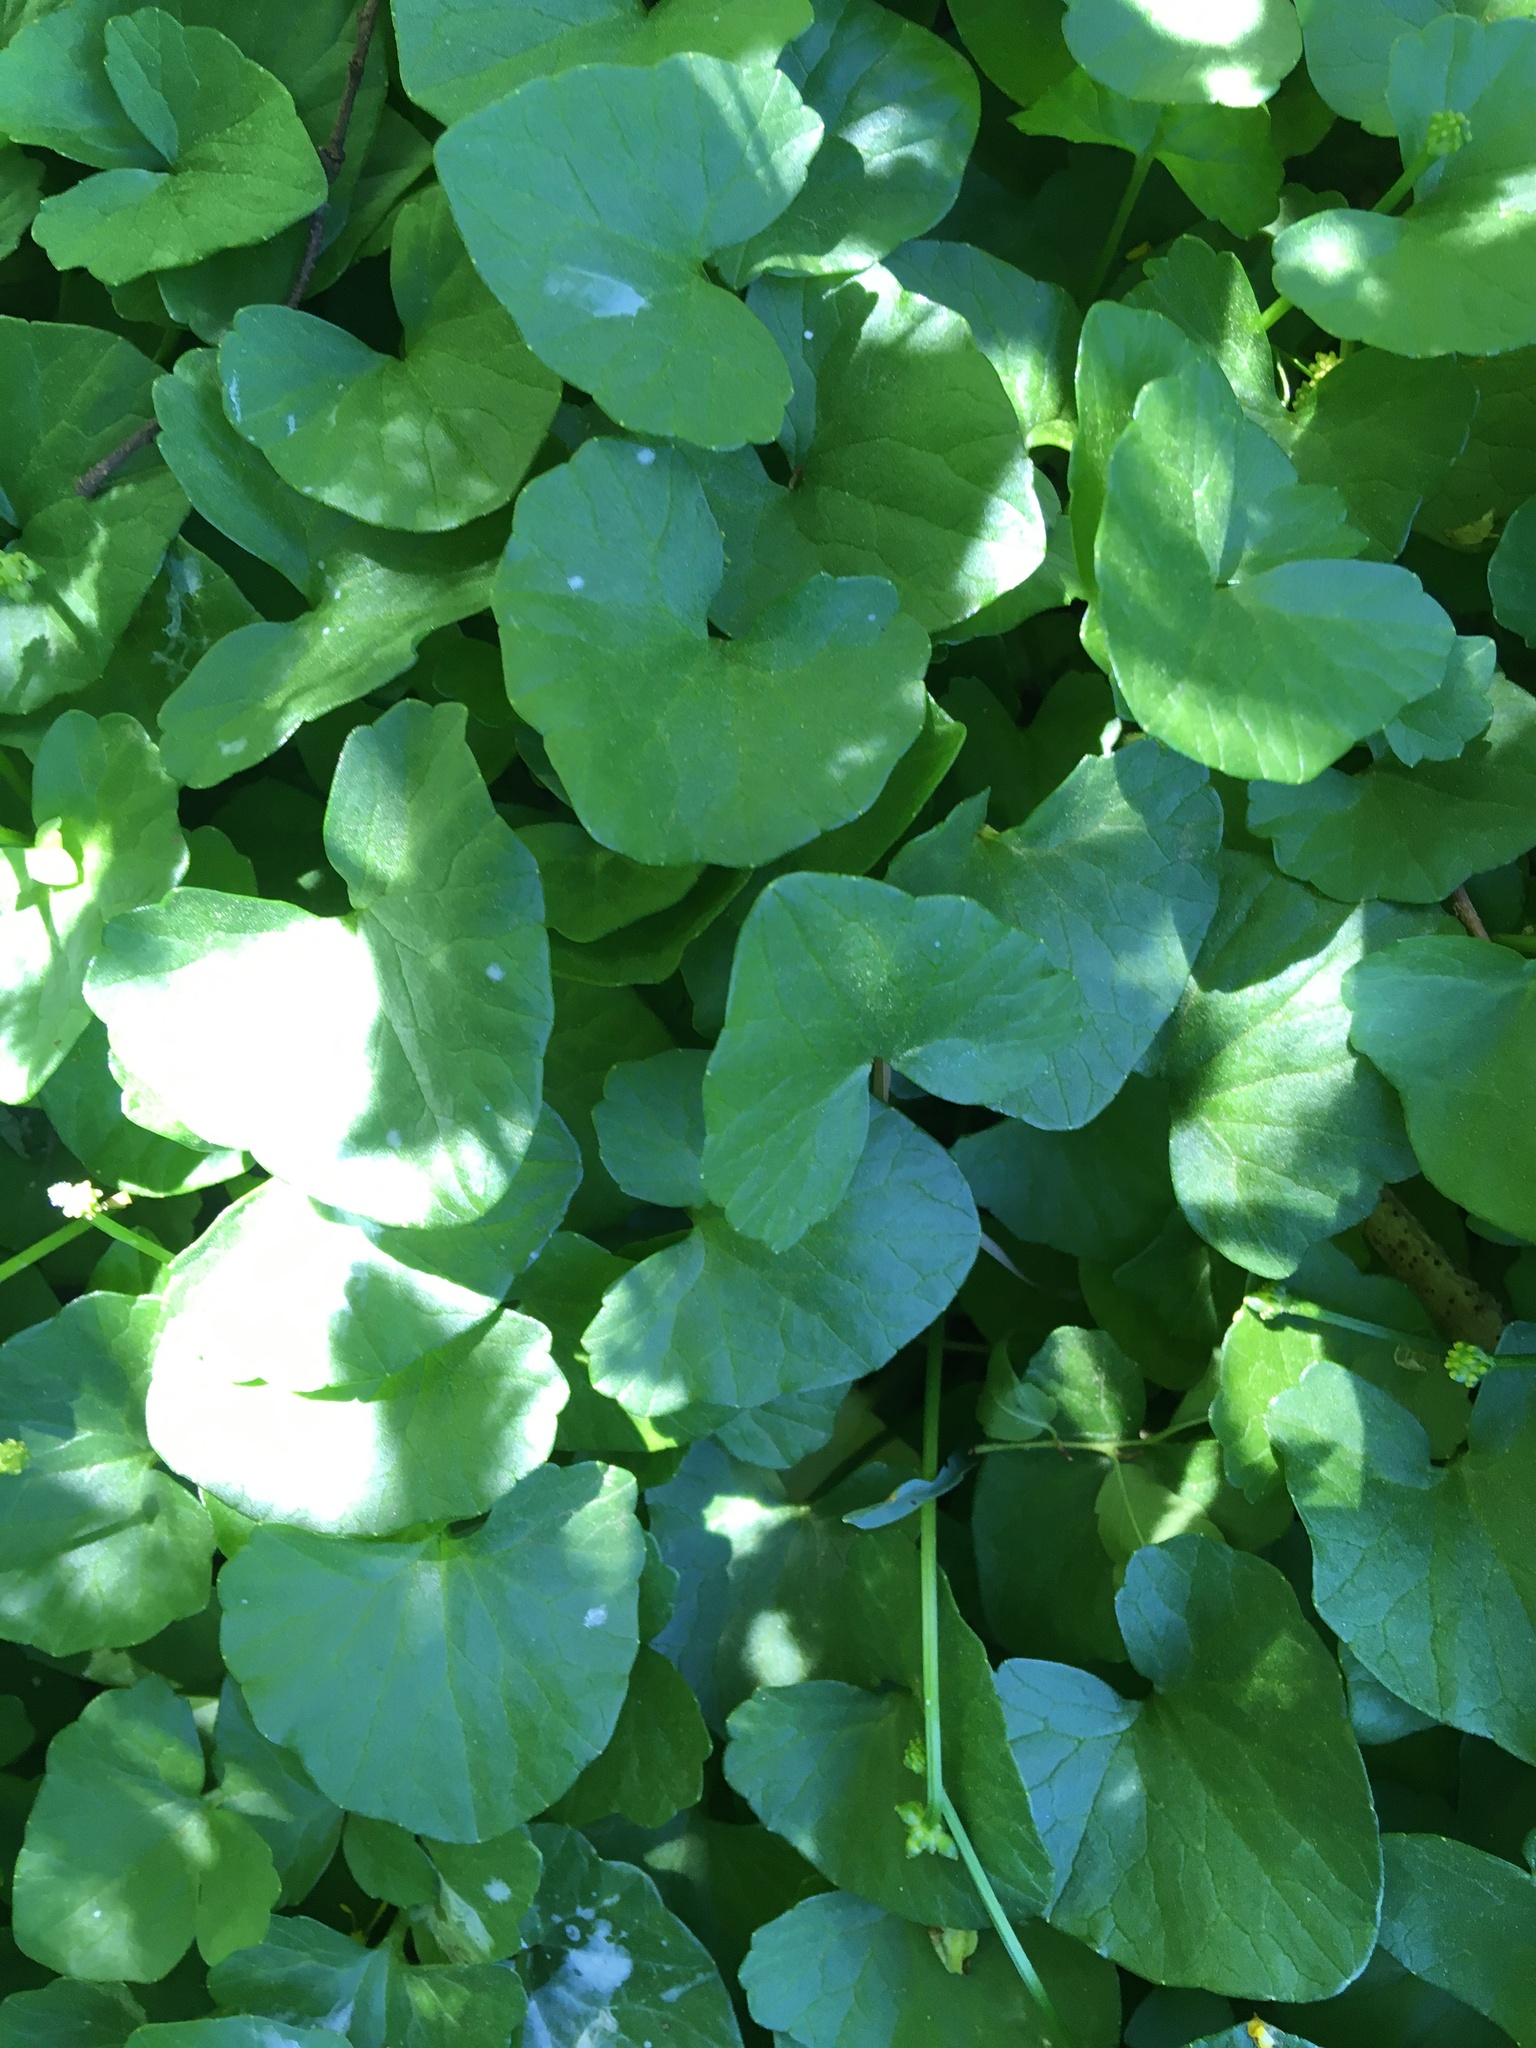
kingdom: Plantae
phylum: Tracheophyta
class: Magnoliopsida
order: Ranunculales
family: Ranunculaceae
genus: Ficaria
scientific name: Ficaria verna
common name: Lesser celandine
